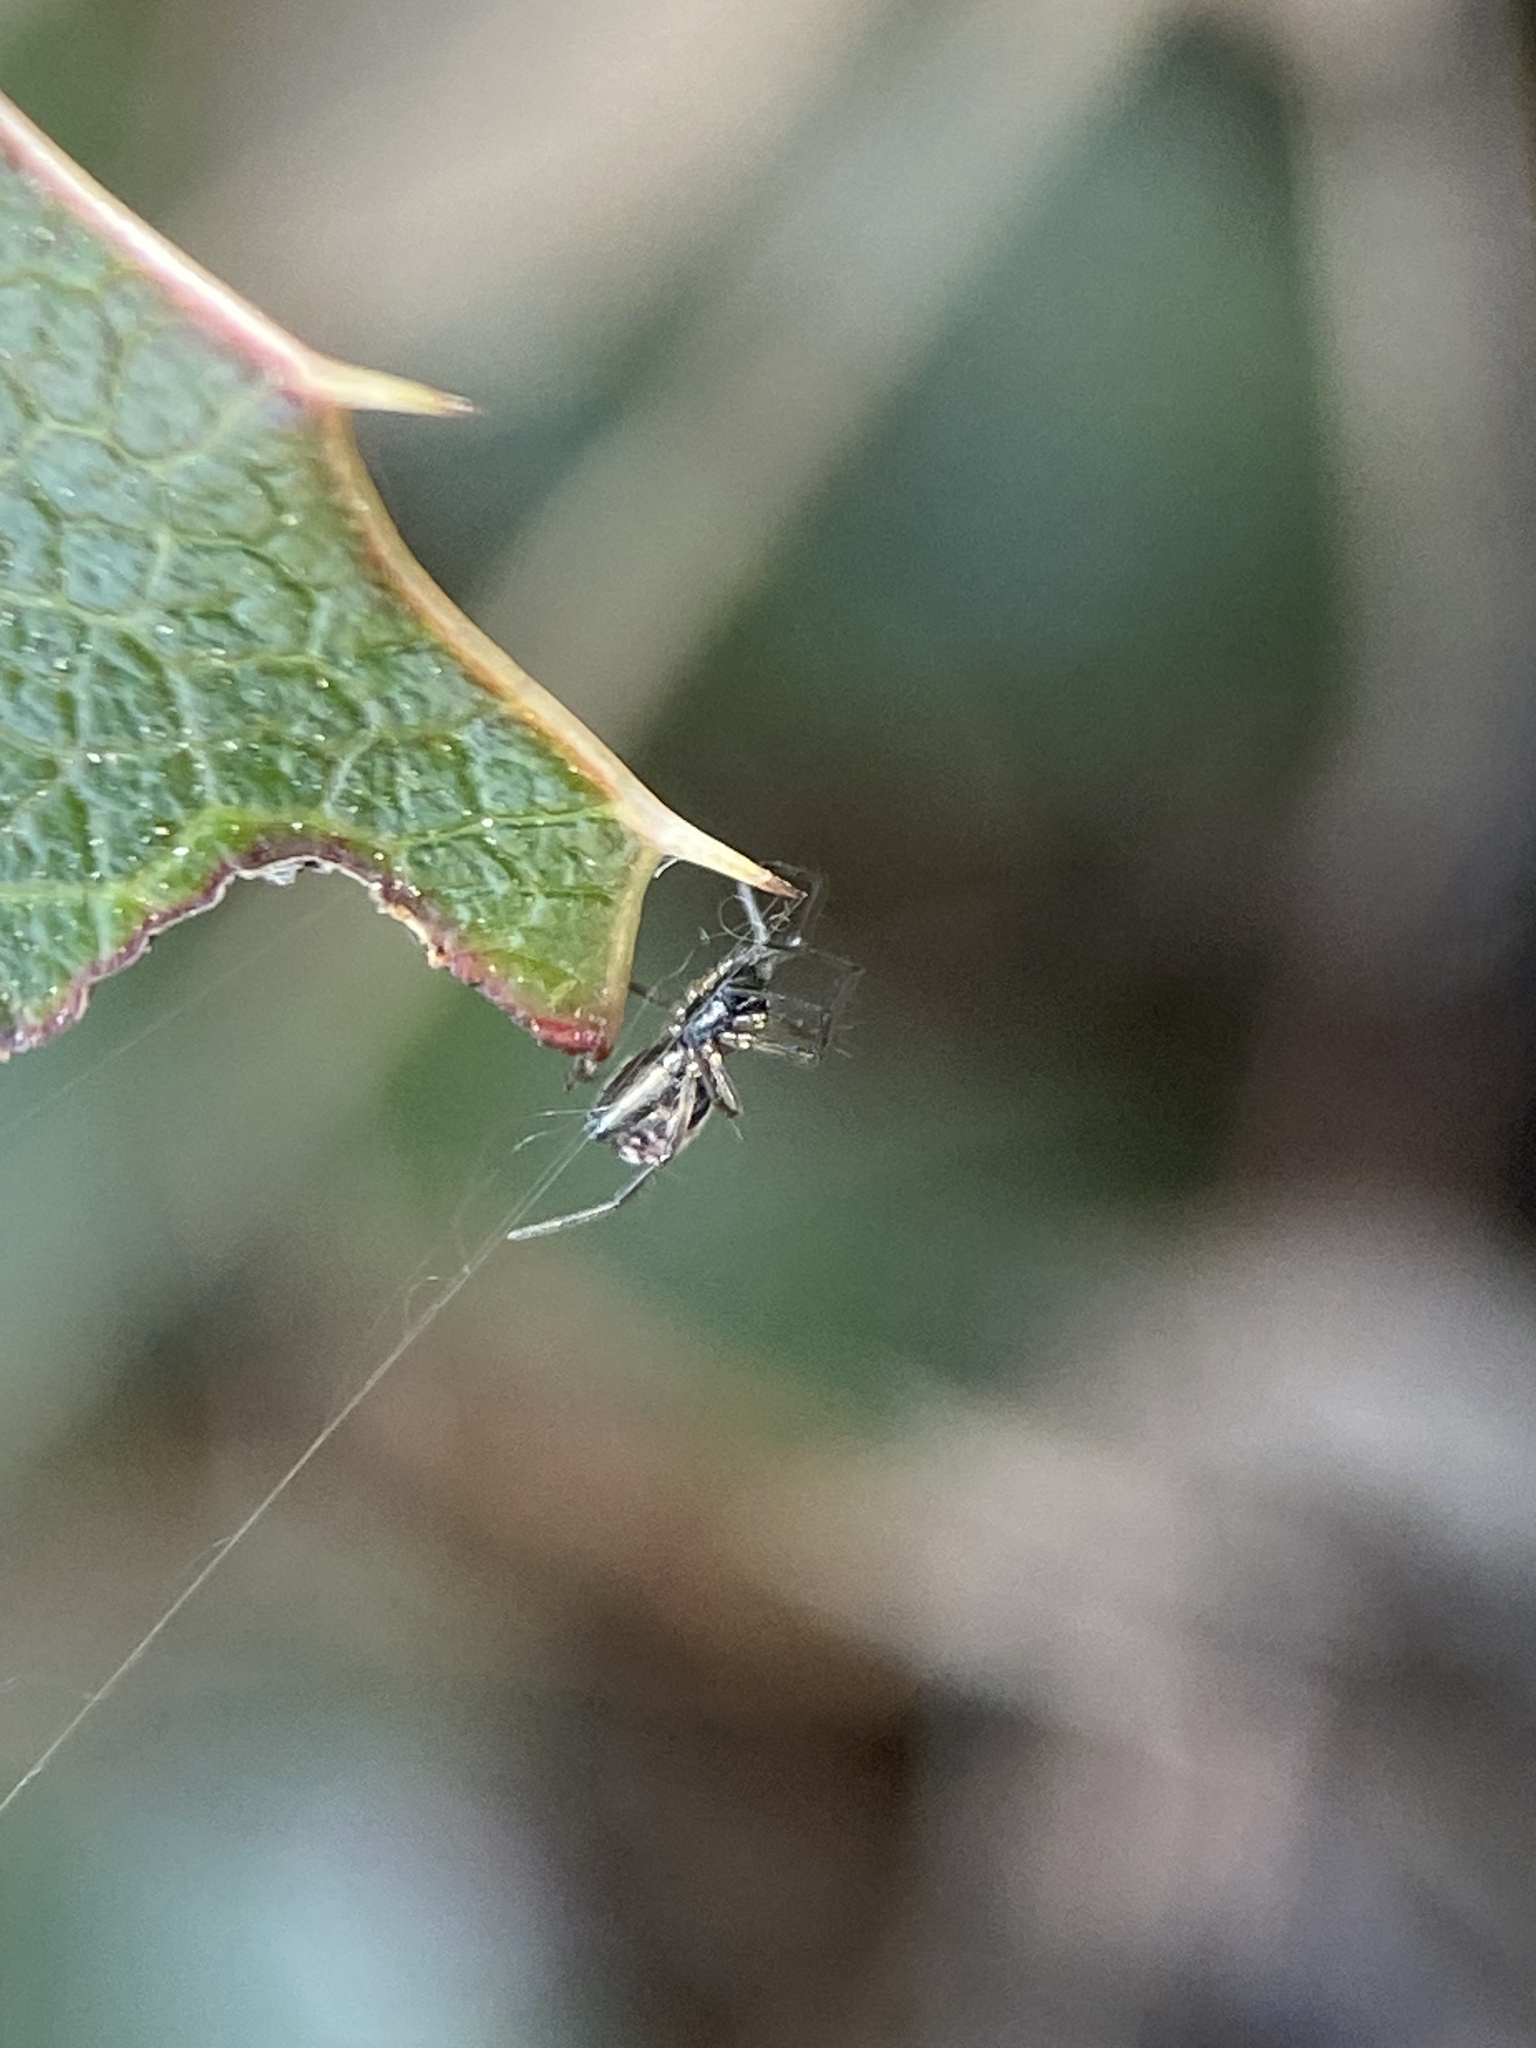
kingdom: Animalia
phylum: Arthropoda
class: Arachnida
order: Araneae
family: Linyphiidae
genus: Frontinella
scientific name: Frontinella pyramitela
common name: Bowl-and-doily spider
